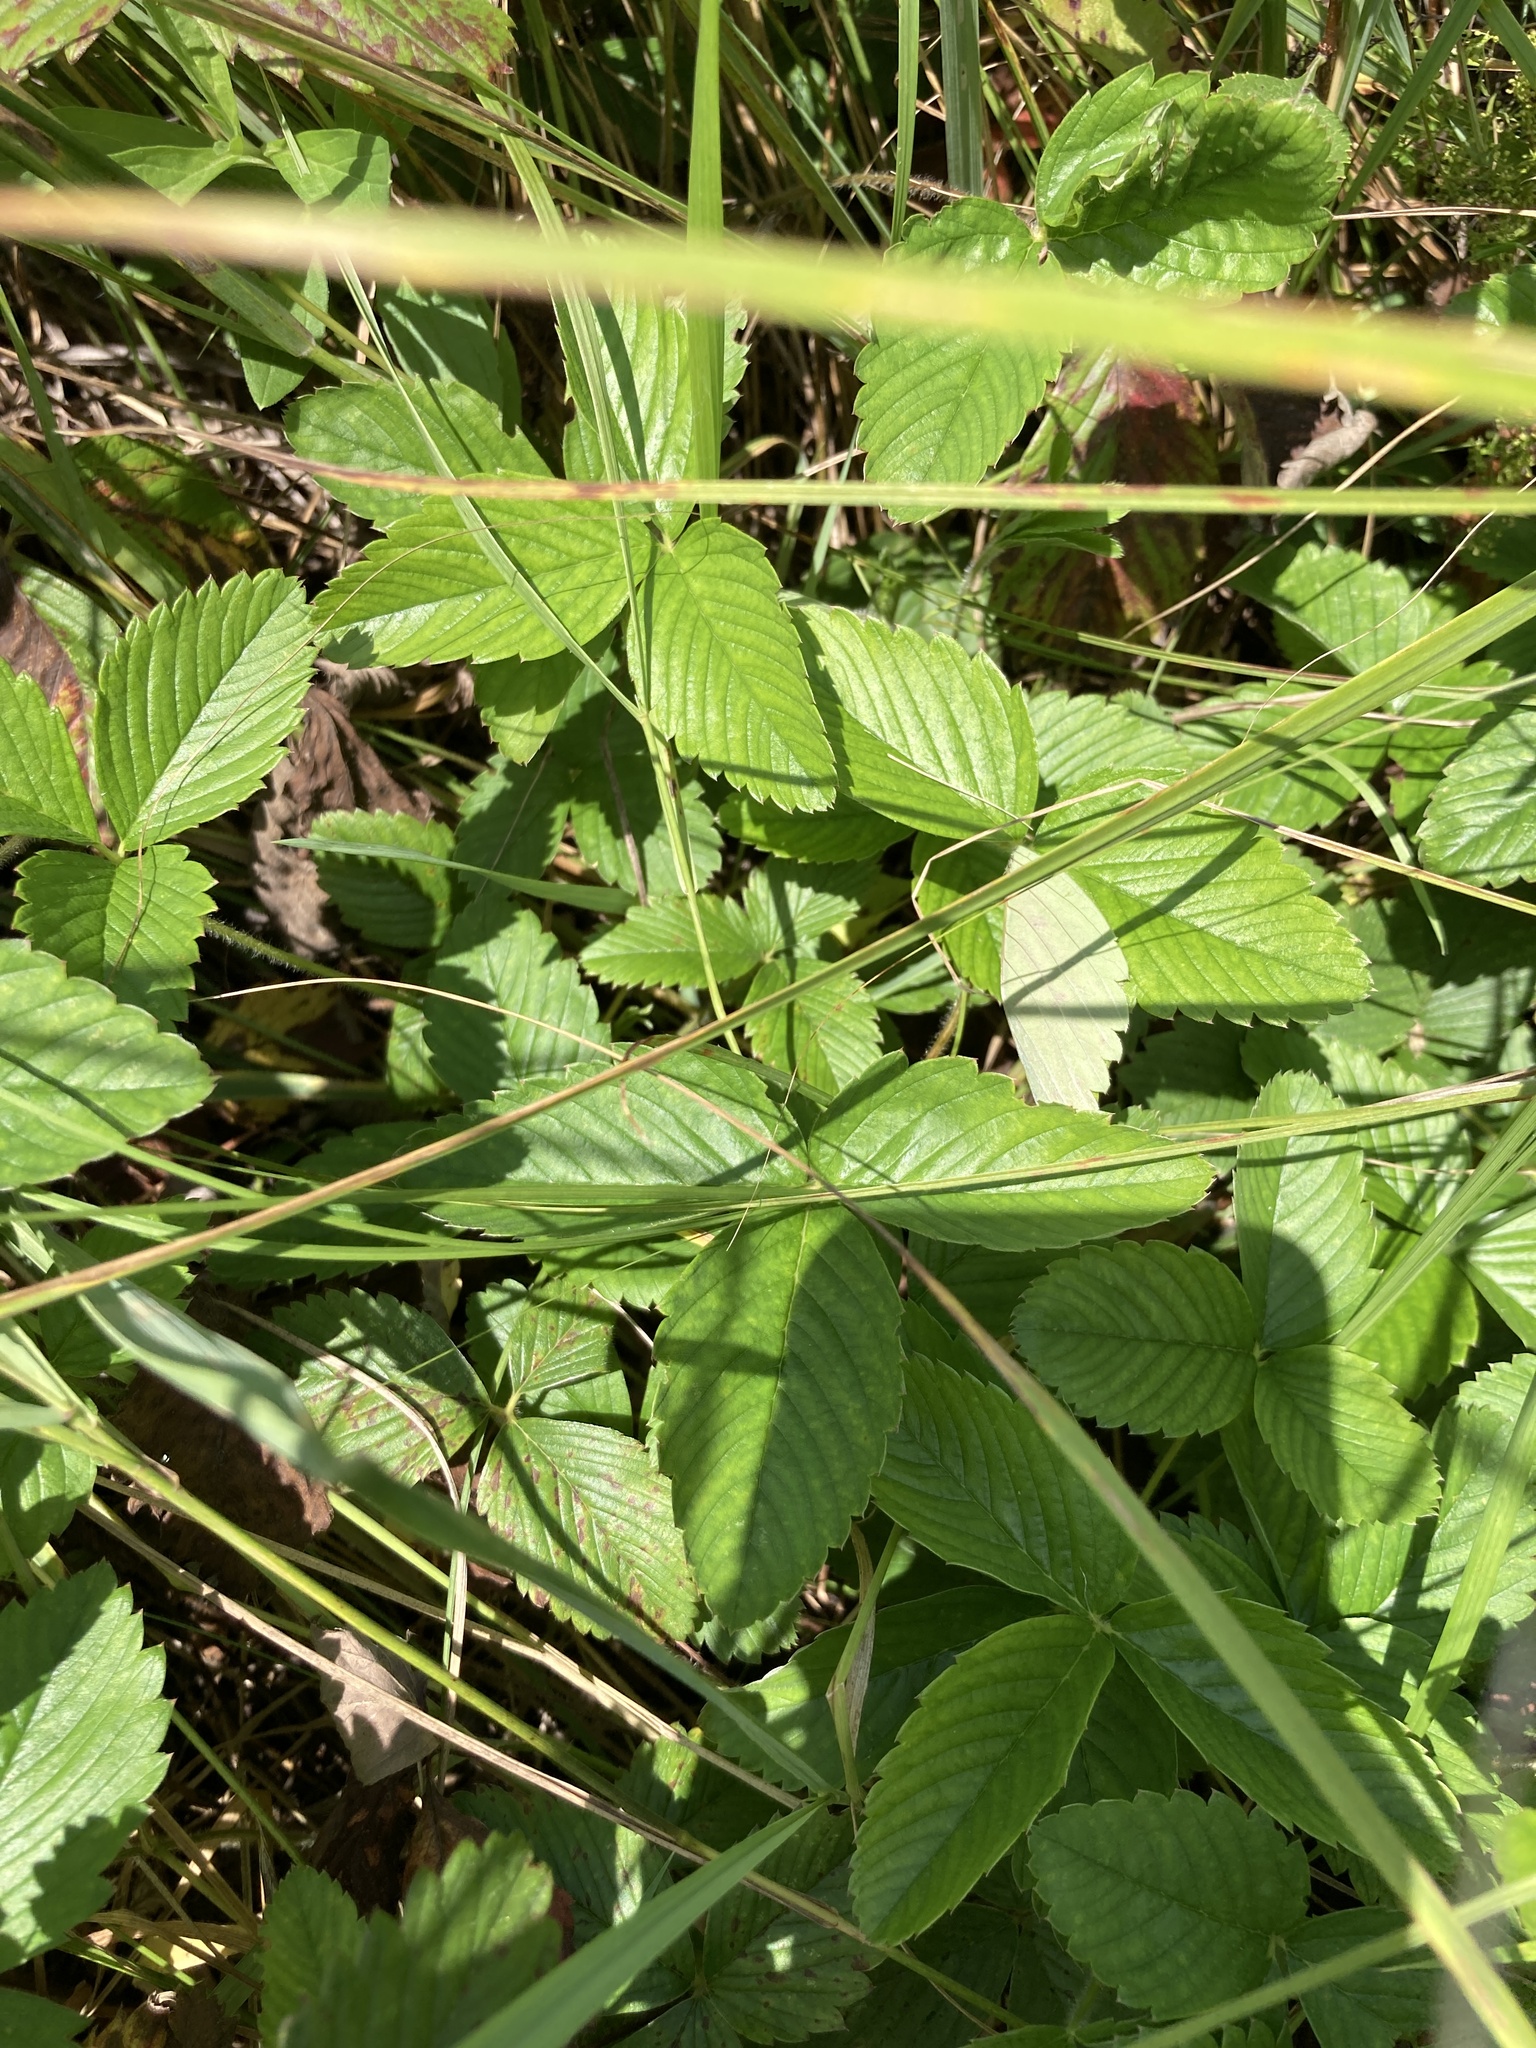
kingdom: Plantae
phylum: Tracheophyta
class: Magnoliopsida
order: Rosales
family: Rosaceae
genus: Fragaria
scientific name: Fragaria viridis
